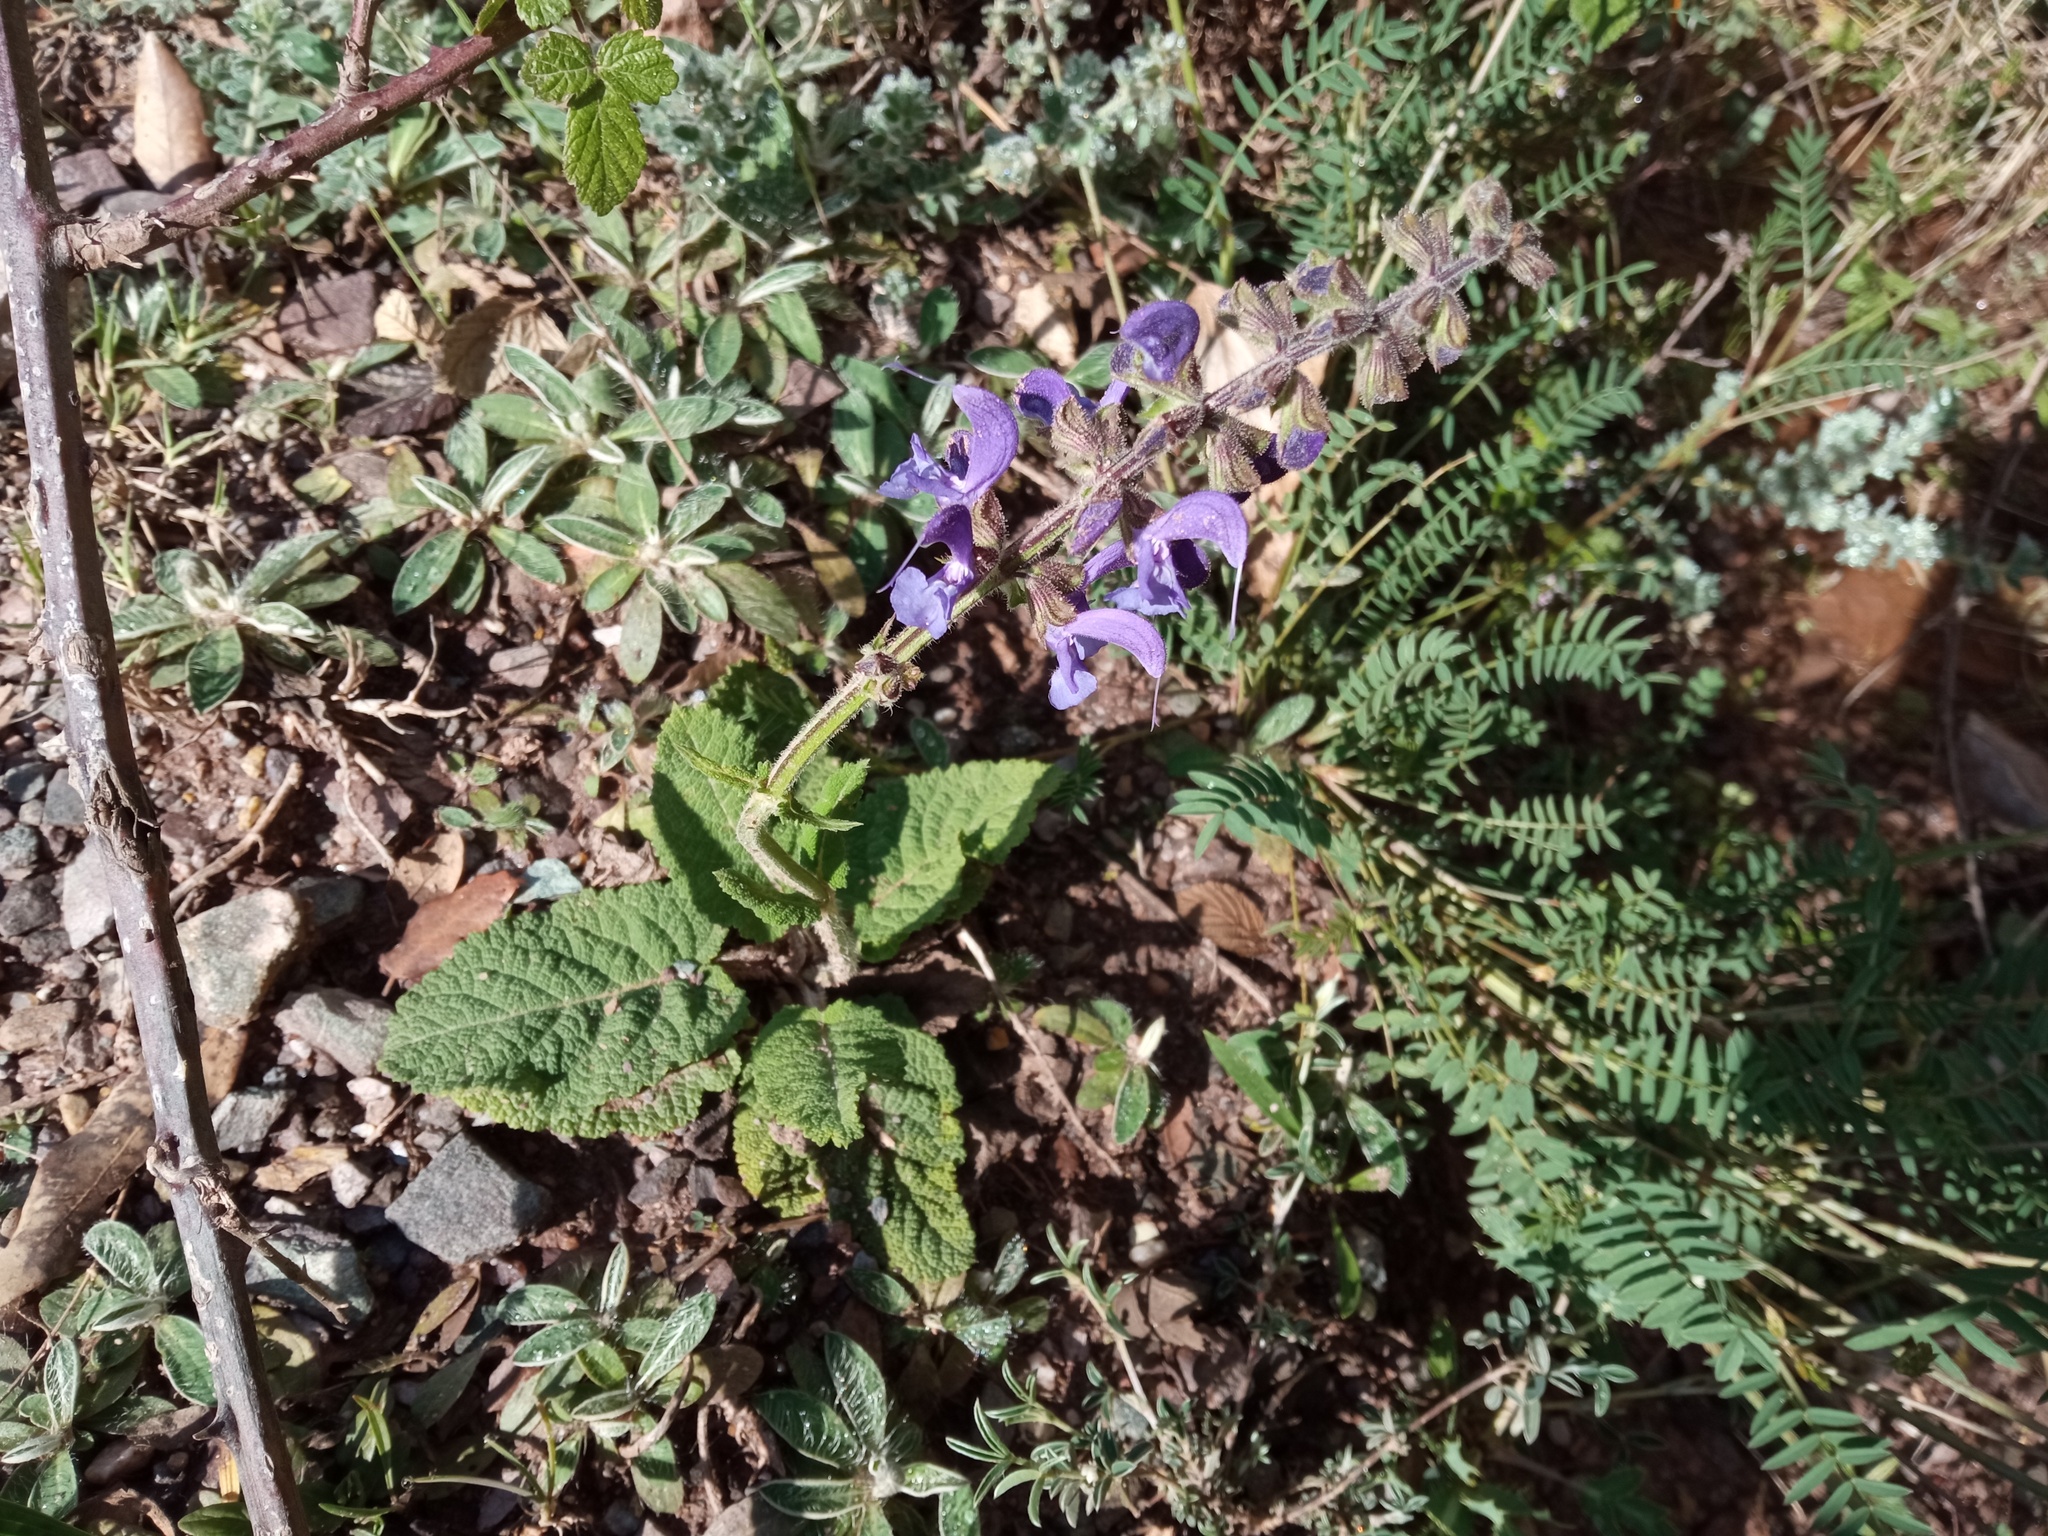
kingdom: Plantae
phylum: Tracheophyta
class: Magnoliopsida
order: Lamiales
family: Lamiaceae
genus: Salvia
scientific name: Salvia pratensis
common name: Meadow sage
